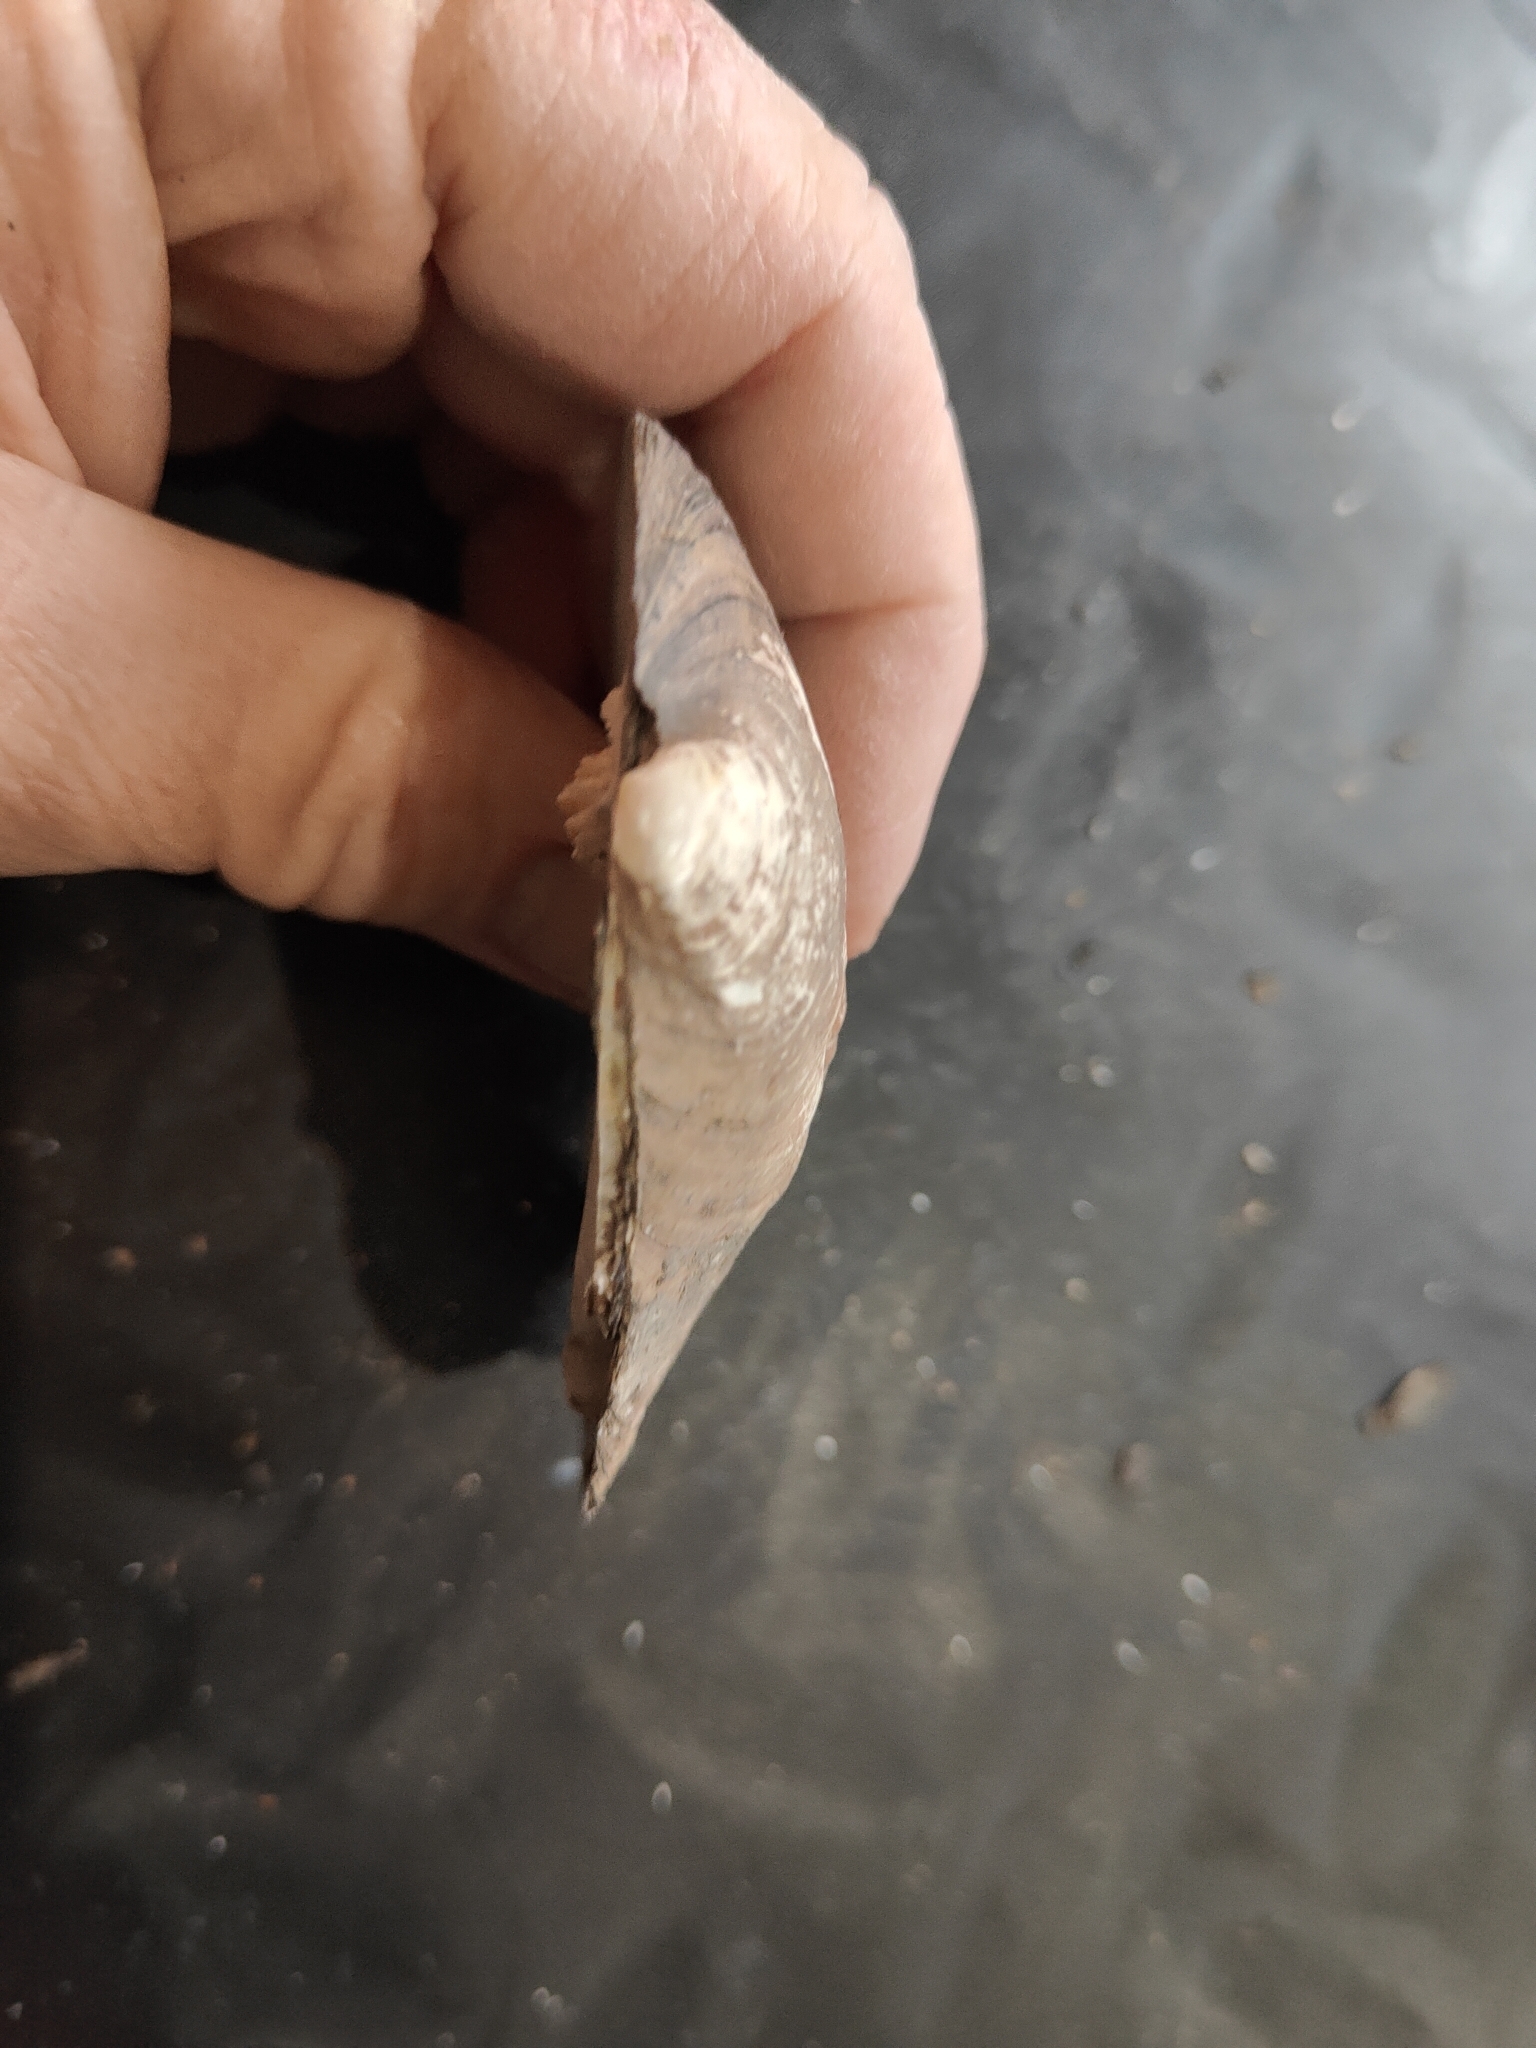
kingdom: Animalia
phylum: Mollusca
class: Bivalvia
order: Unionida
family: Unionidae
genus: Amblema
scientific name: Amblema plicata
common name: Threeridge
